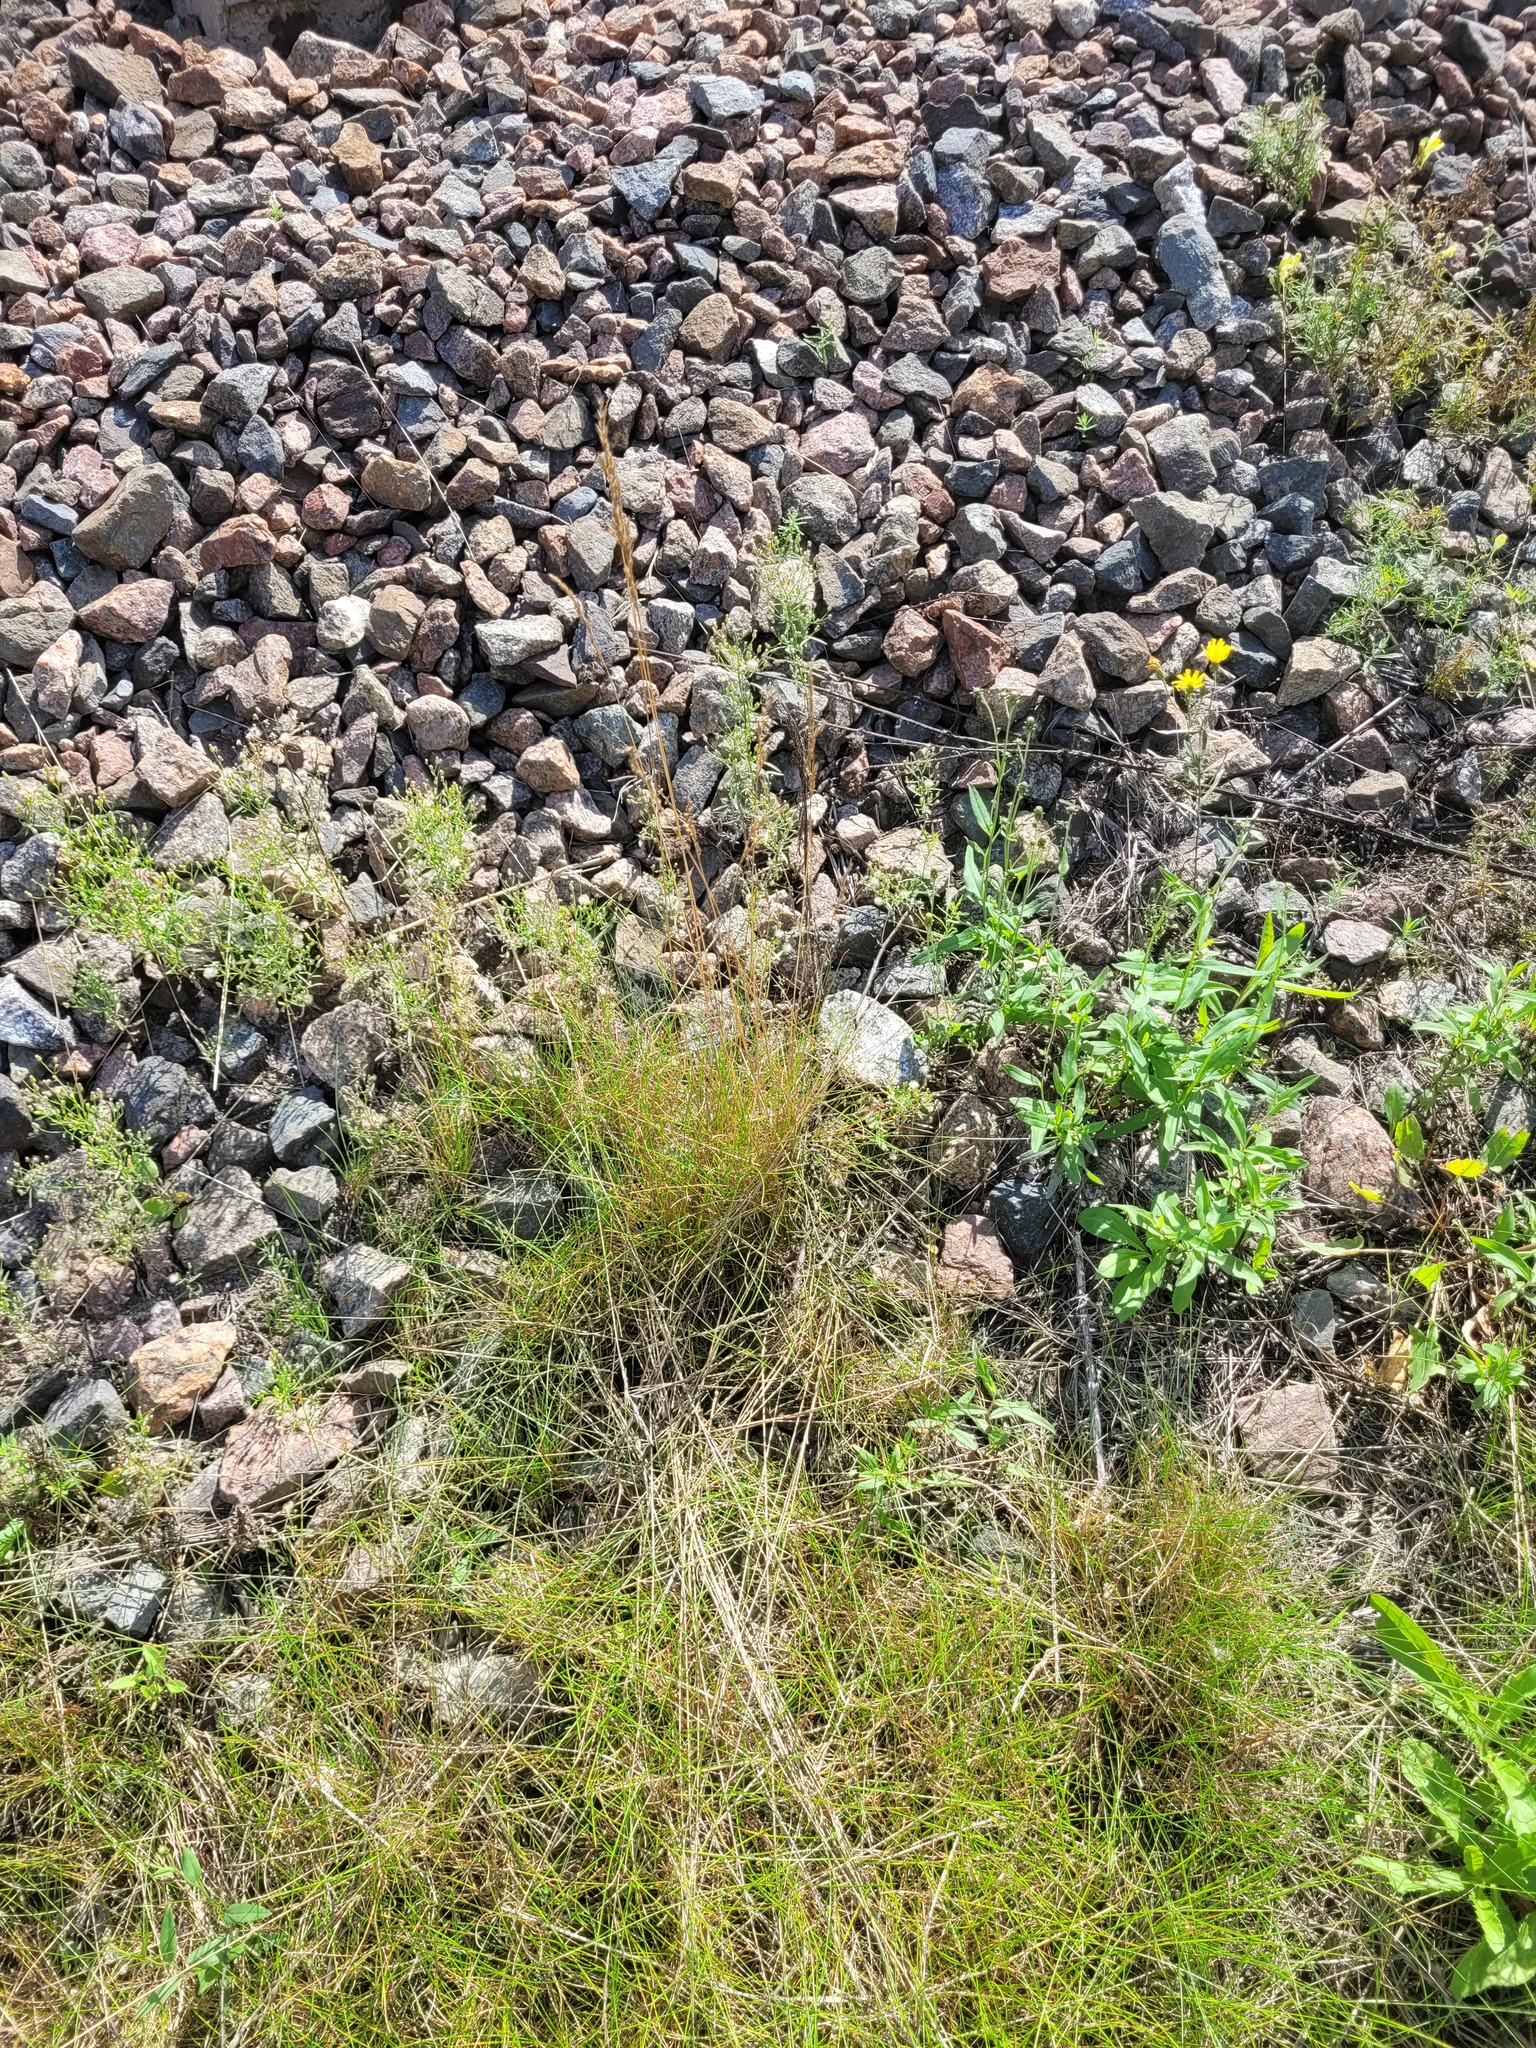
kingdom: Plantae
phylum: Tracheophyta
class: Liliopsida
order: Poales
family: Poaceae
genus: Festuca
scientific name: Festuca rubra
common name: Red fescue
